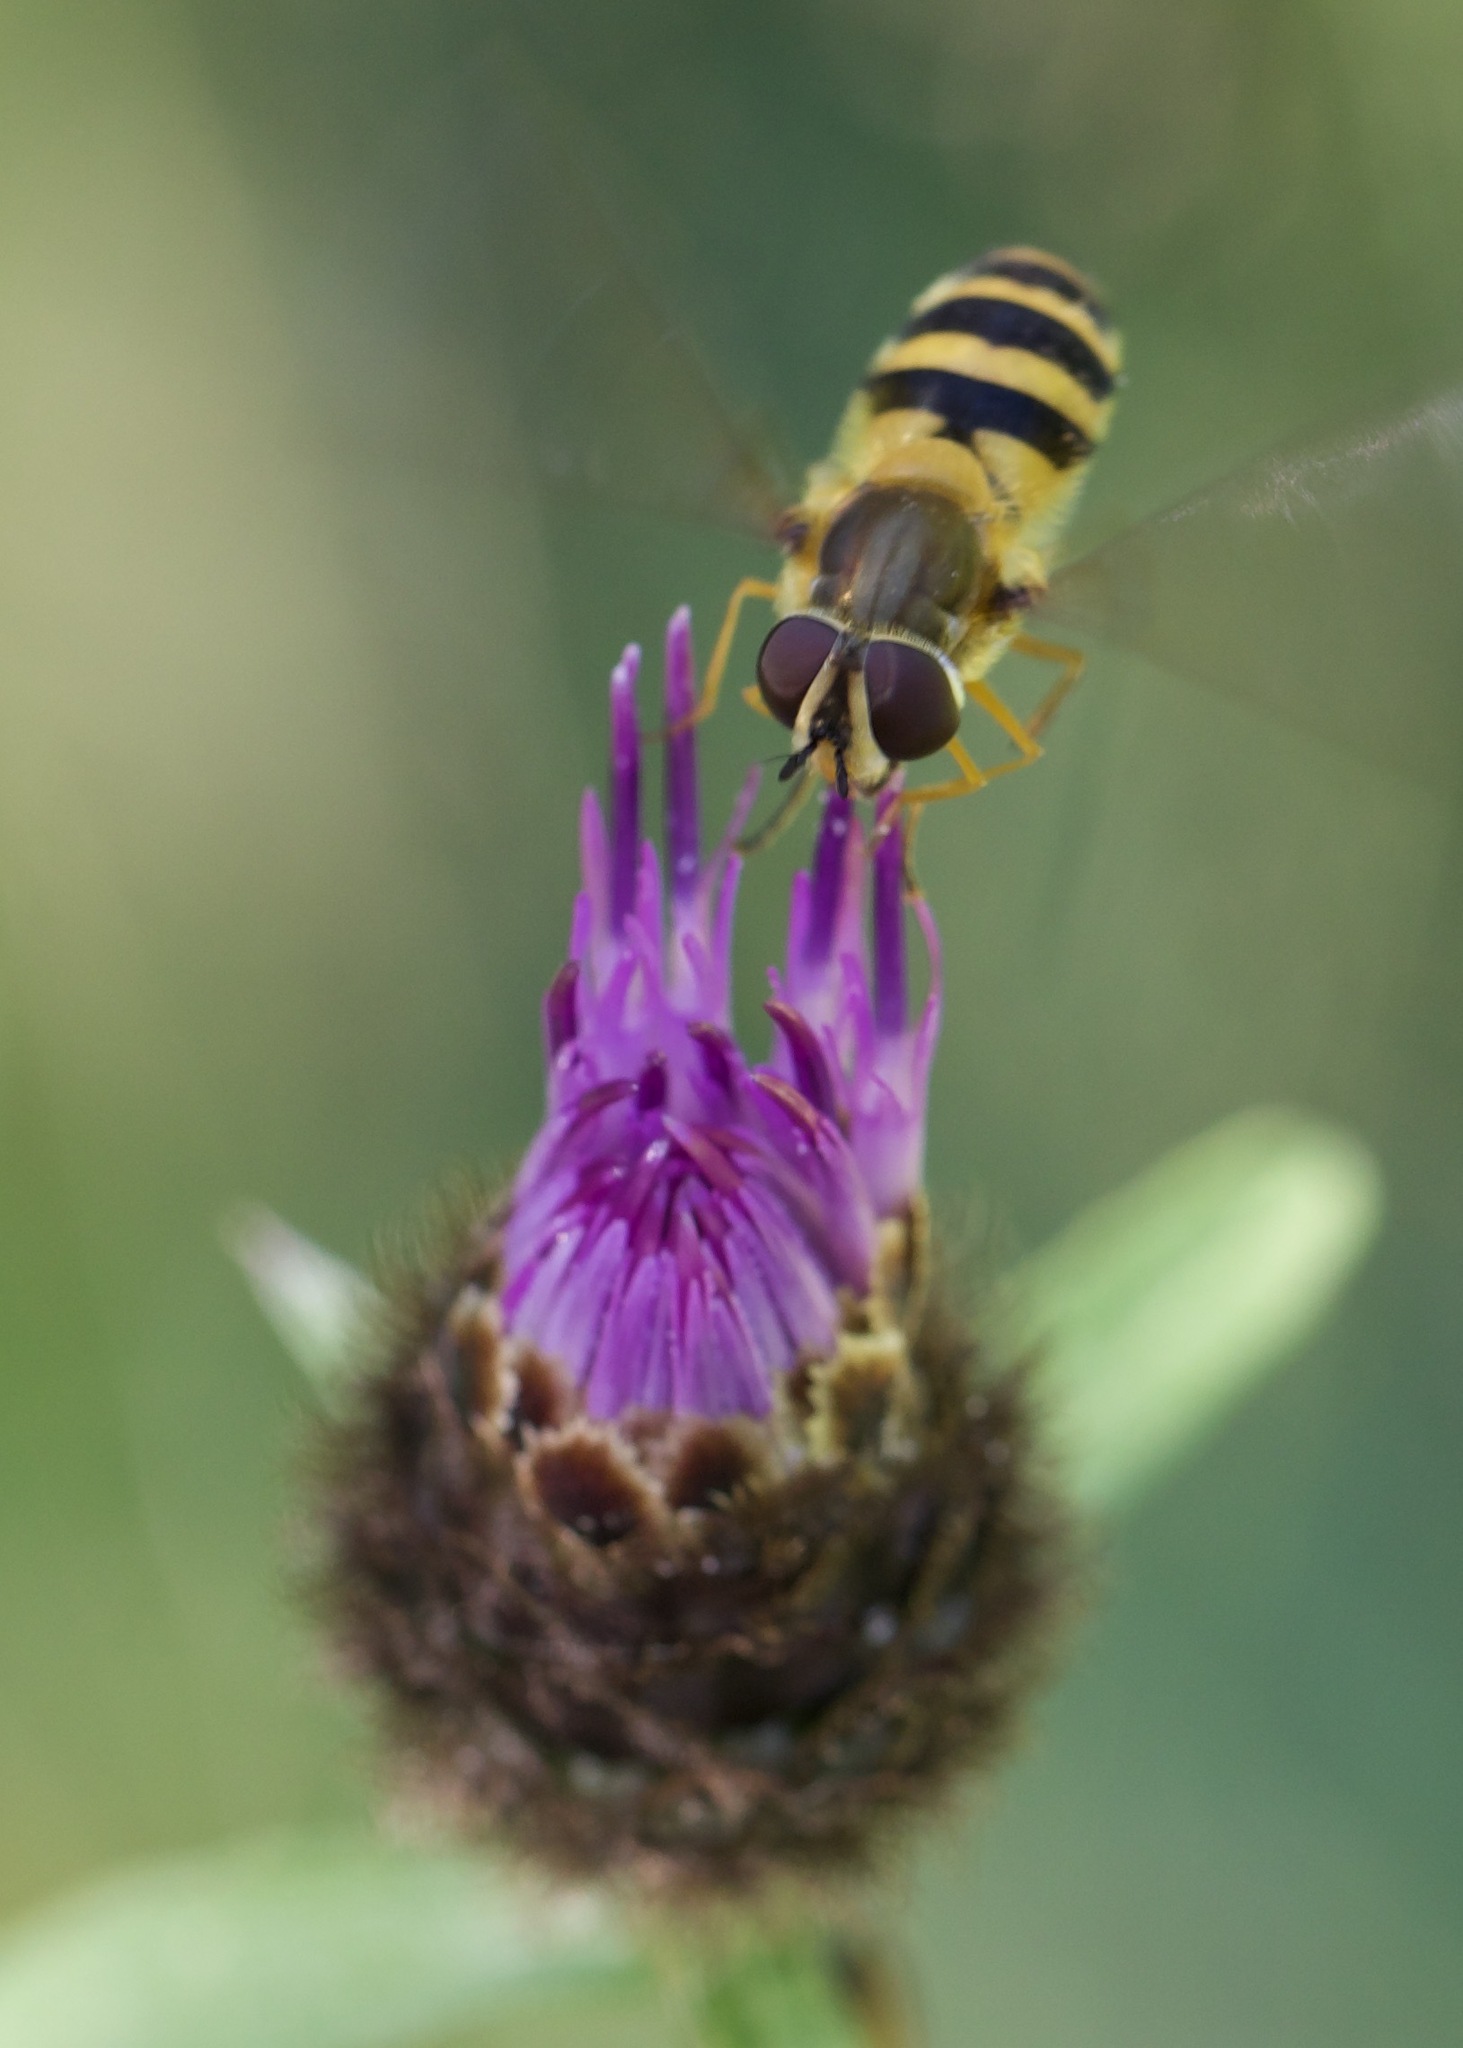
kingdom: Animalia
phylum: Arthropoda
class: Insecta
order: Diptera
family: Syrphidae
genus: Epistrophe
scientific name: Epistrophe grossulariae
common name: Black-horned smoothtail
